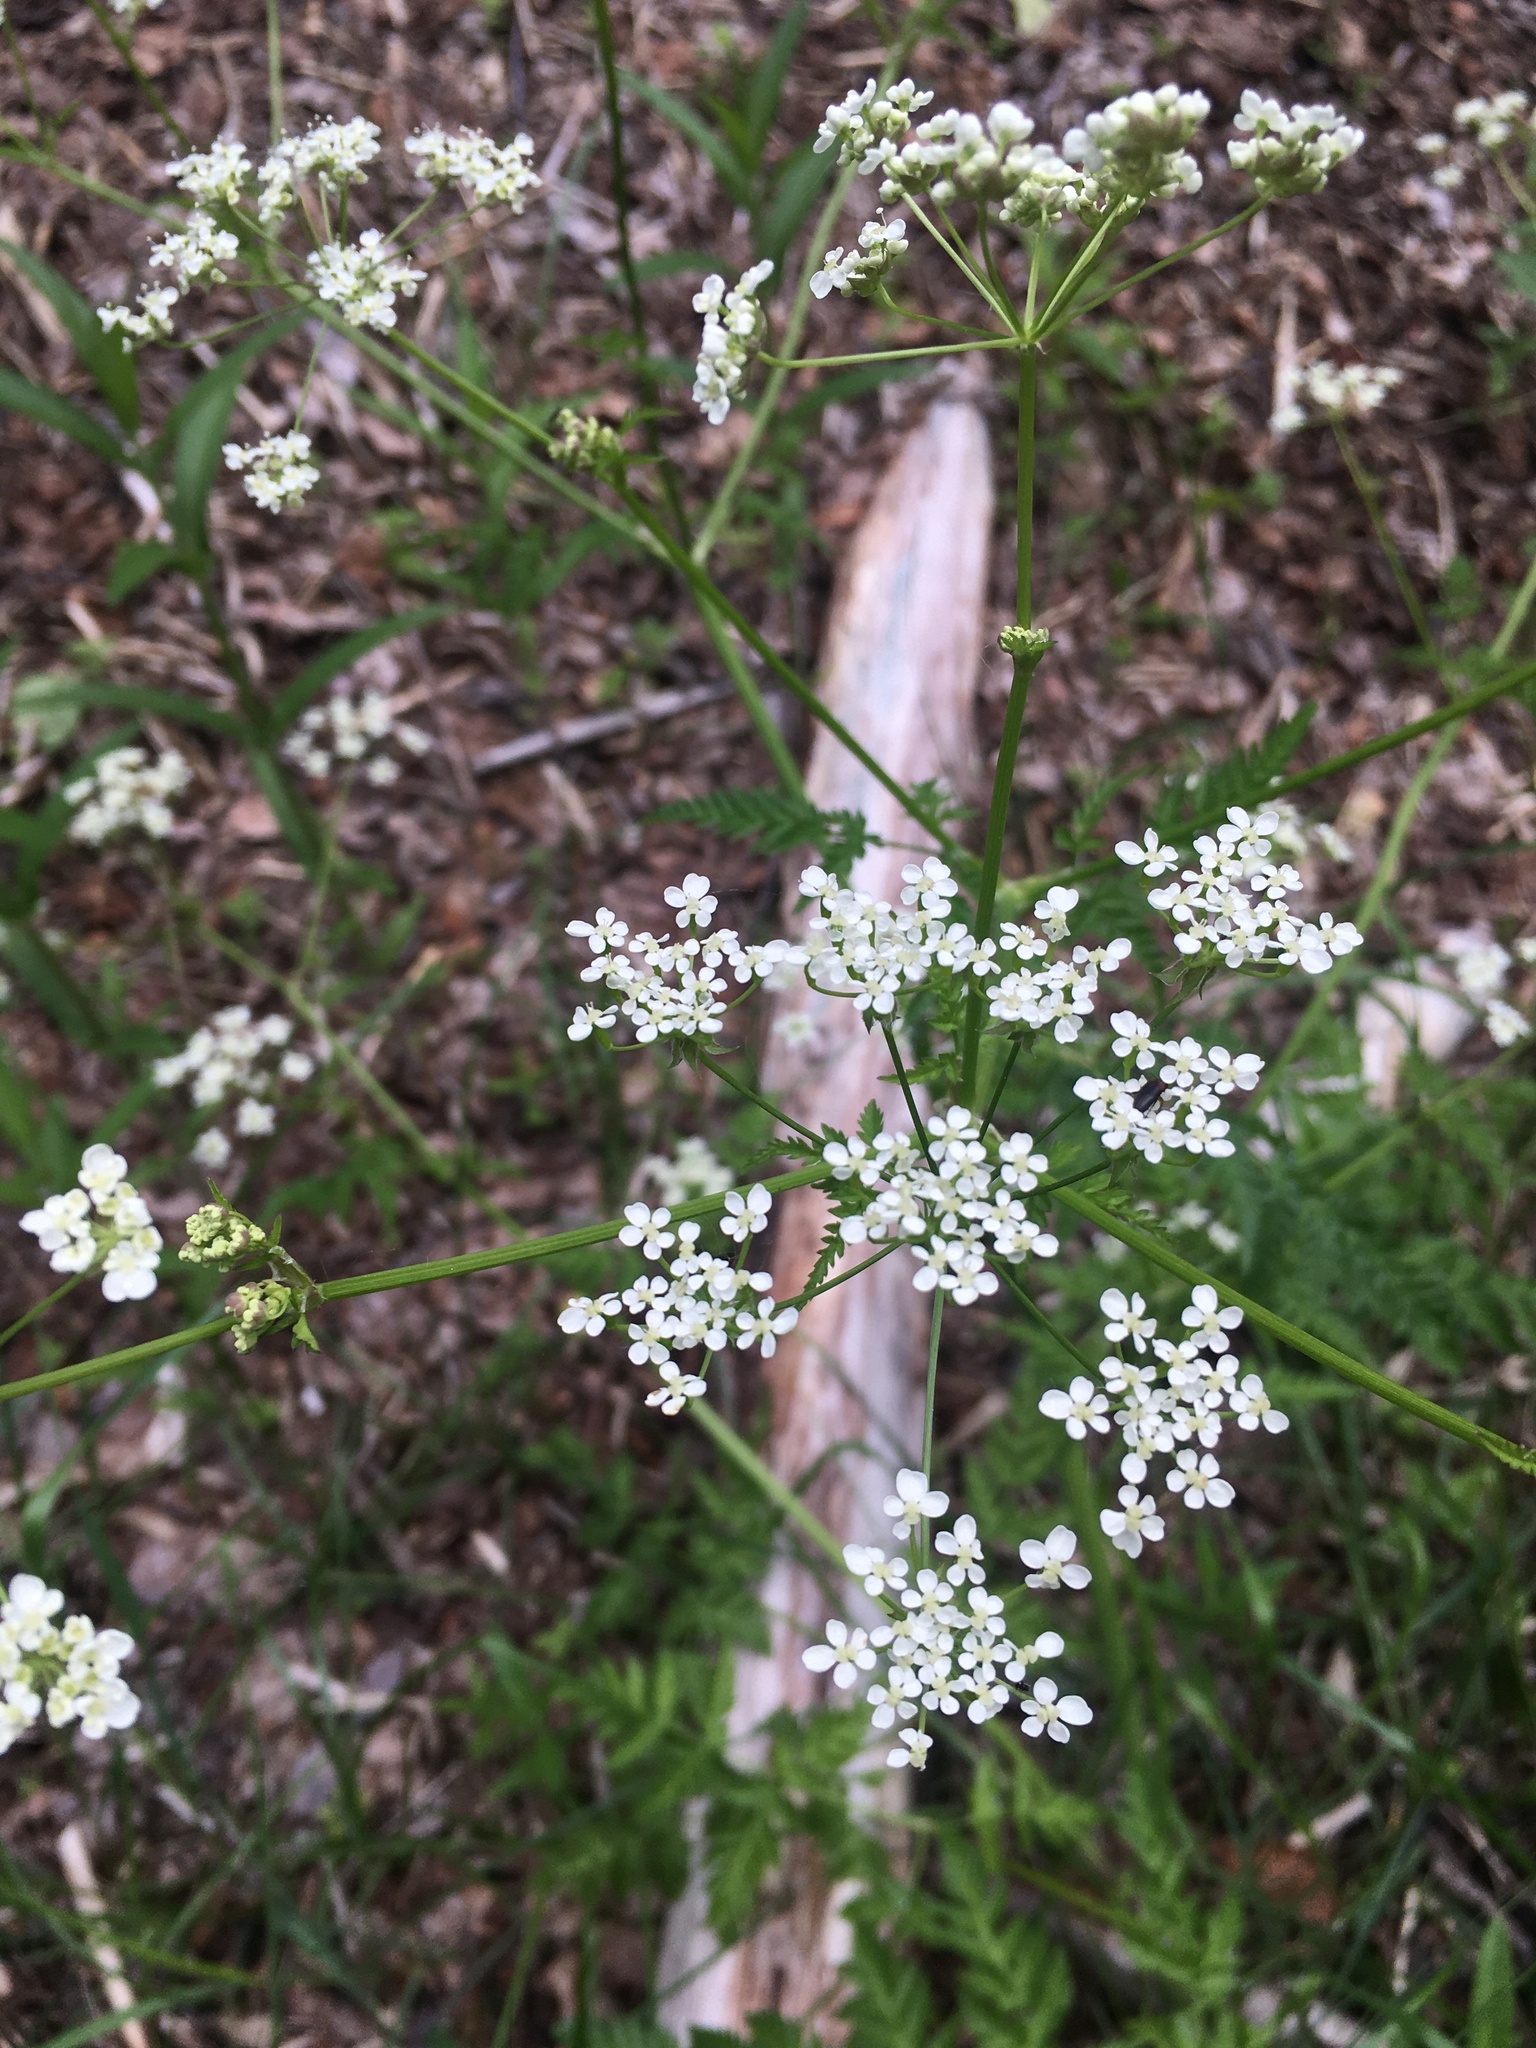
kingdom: Plantae
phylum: Tracheophyta
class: Magnoliopsida
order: Apiales
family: Apiaceae
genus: Anthriscus
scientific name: Anthriscus sylvestris
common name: Cow parsley
